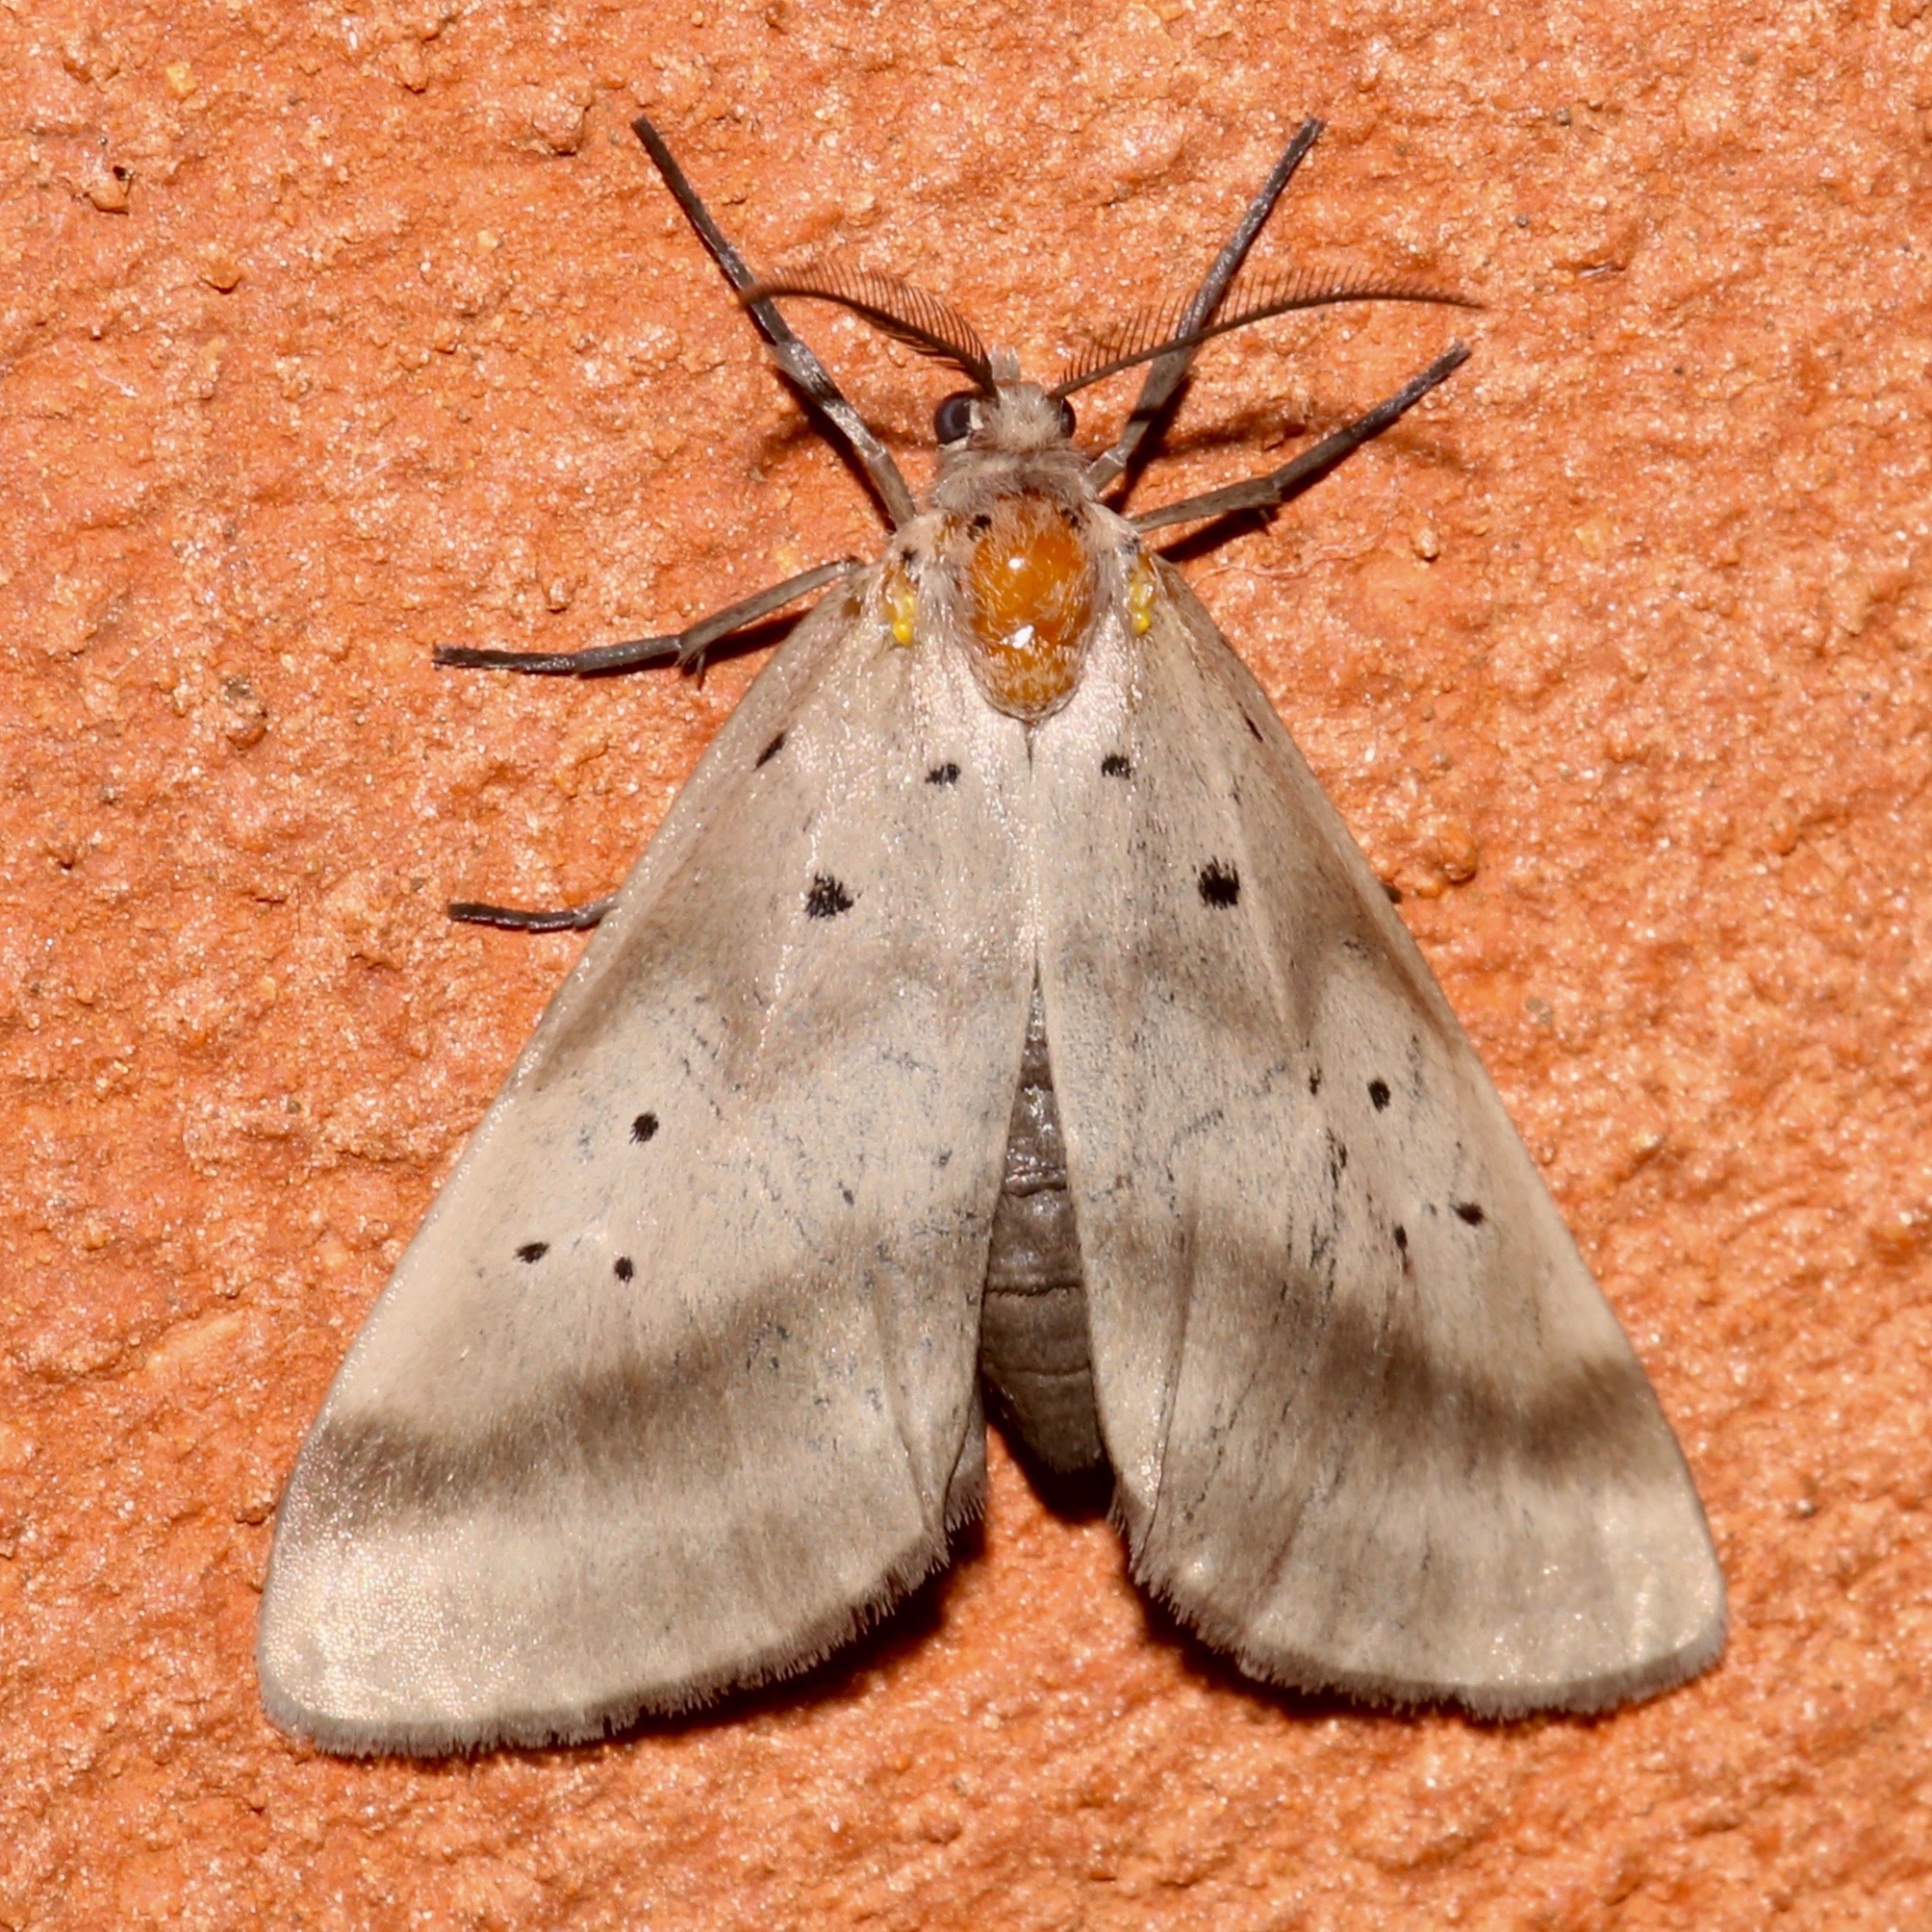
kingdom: Animalia
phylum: Arthropoda
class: Insecta
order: Lepidoptera
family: Doidae
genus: Doa
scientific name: Doa dora
